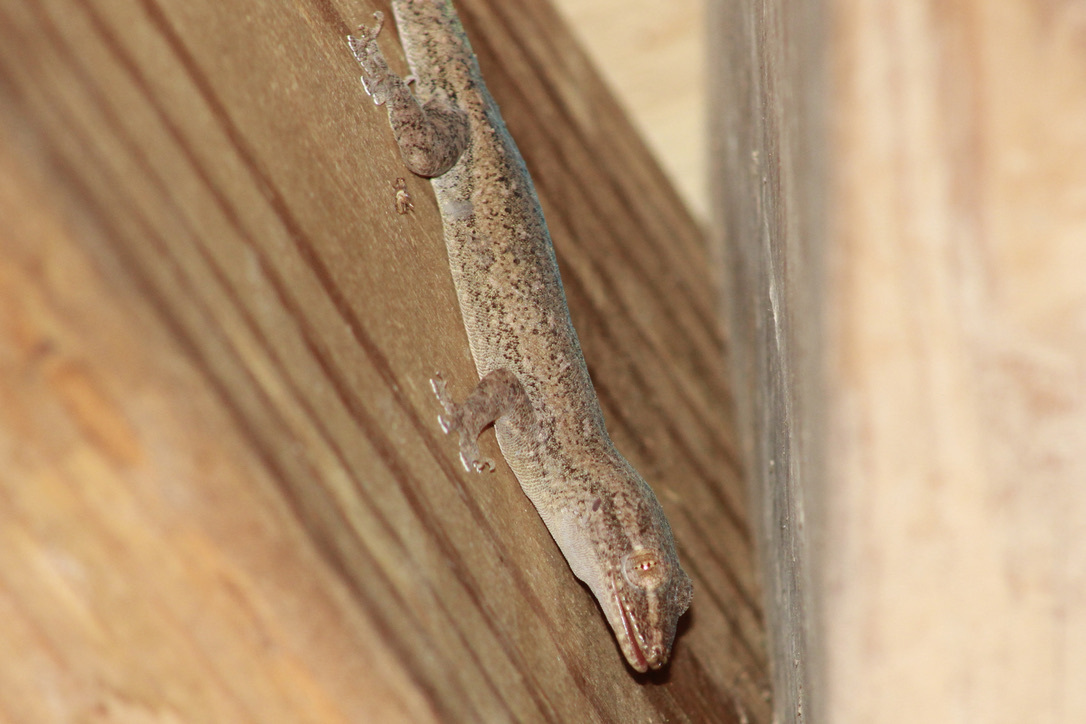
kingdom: Animalia
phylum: Chordata
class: Squamata
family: Gekkonidae
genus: Hemidactylus
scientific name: Hemidactylus frenatus
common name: Common house gecko
